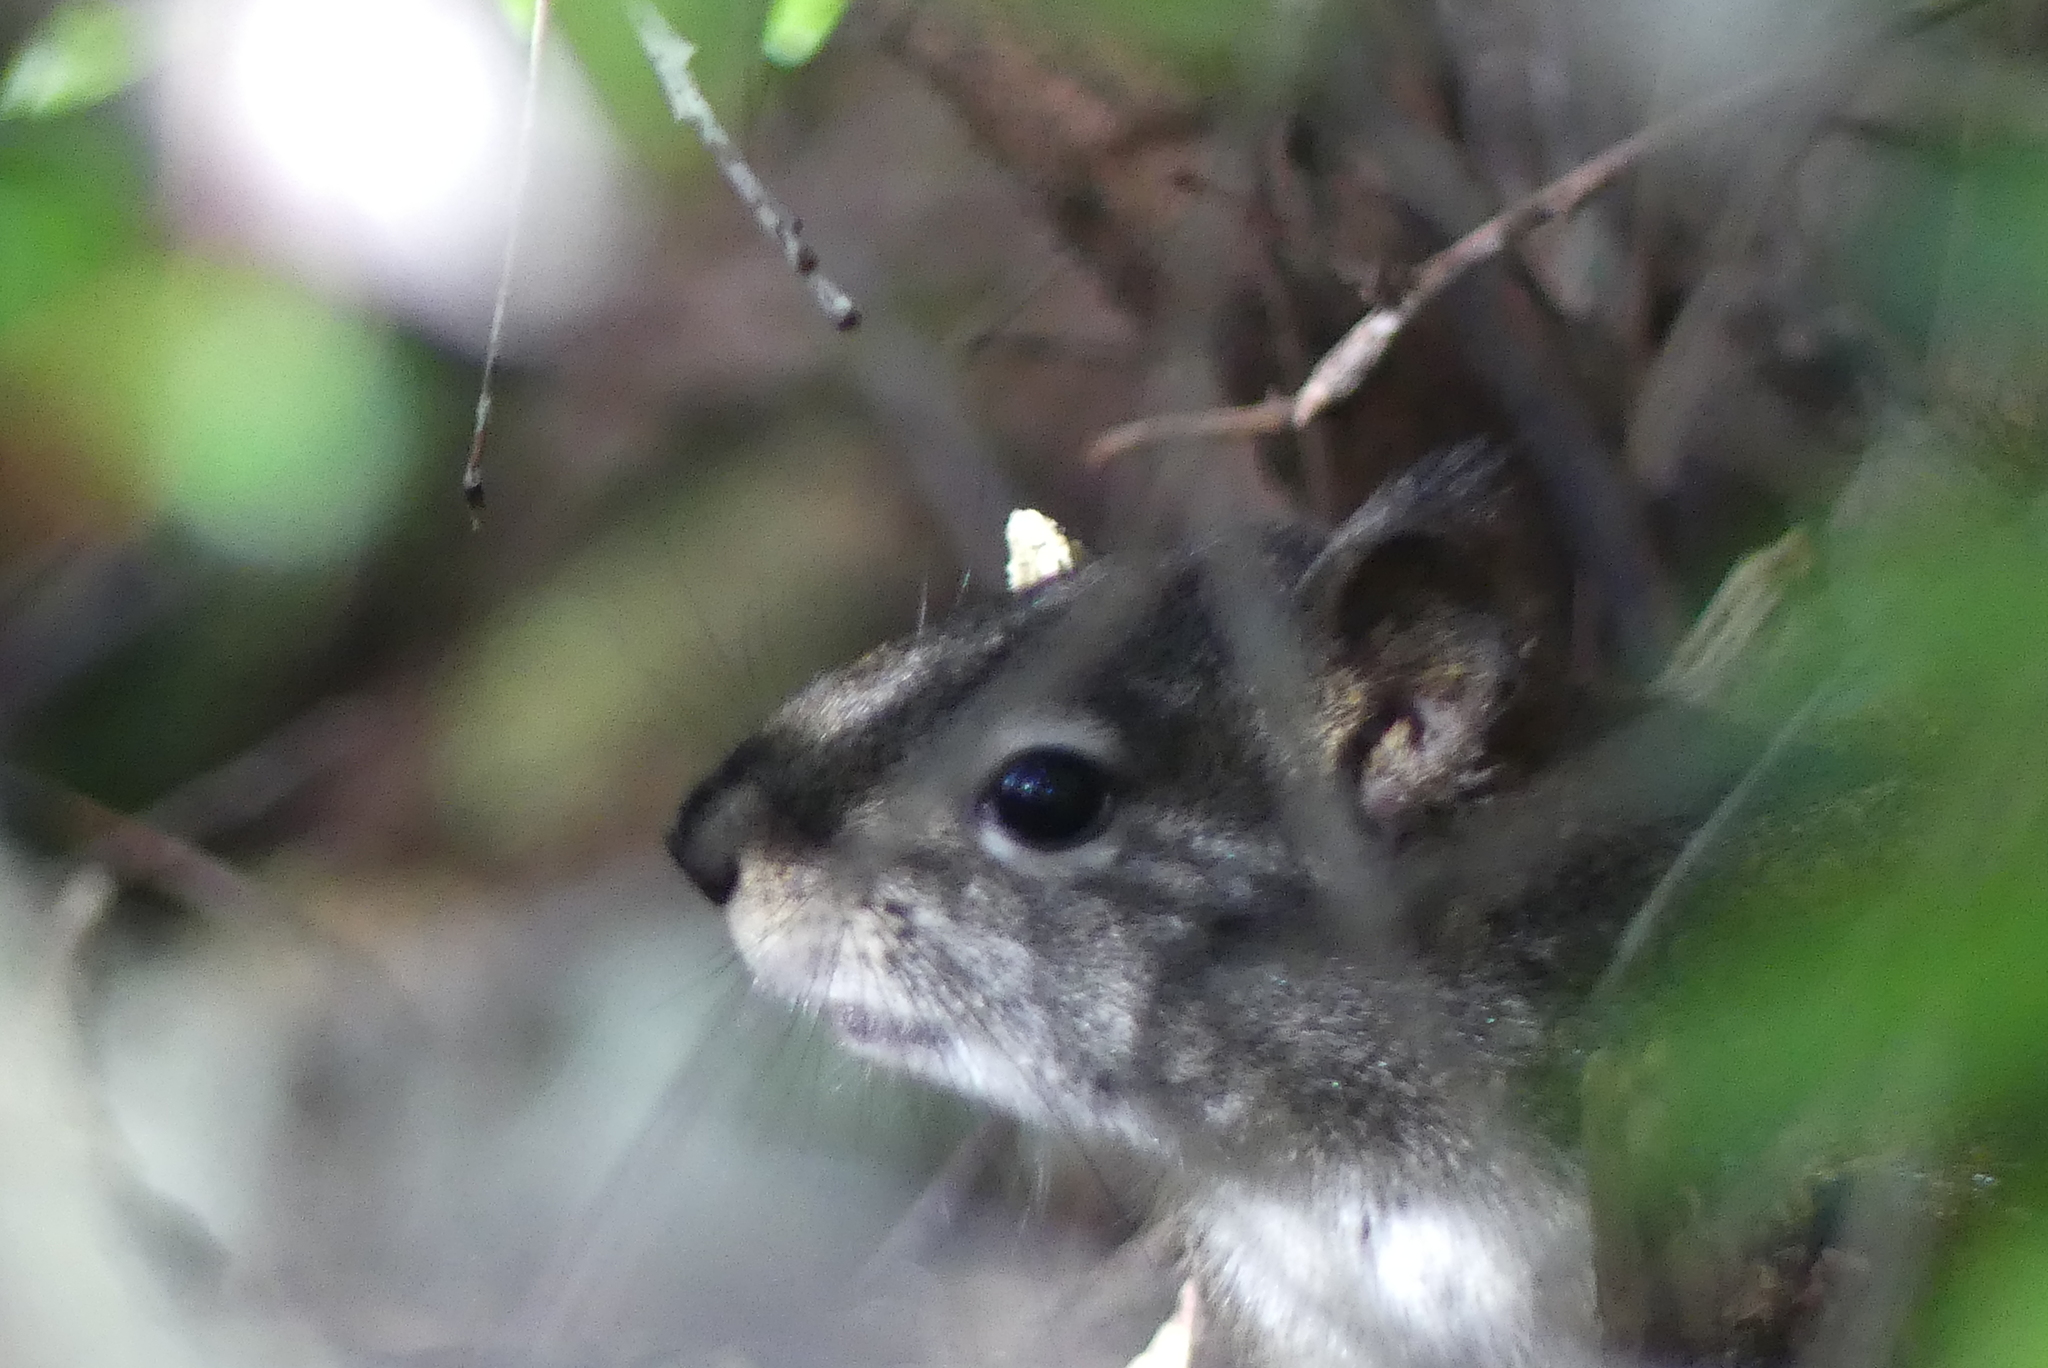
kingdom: Animalia
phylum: Chordata
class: Mammalia
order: Rodentia
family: Sciuridae
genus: Tamiasciurus
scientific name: Tamiasciurus hudsonicus
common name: Red squirrel
